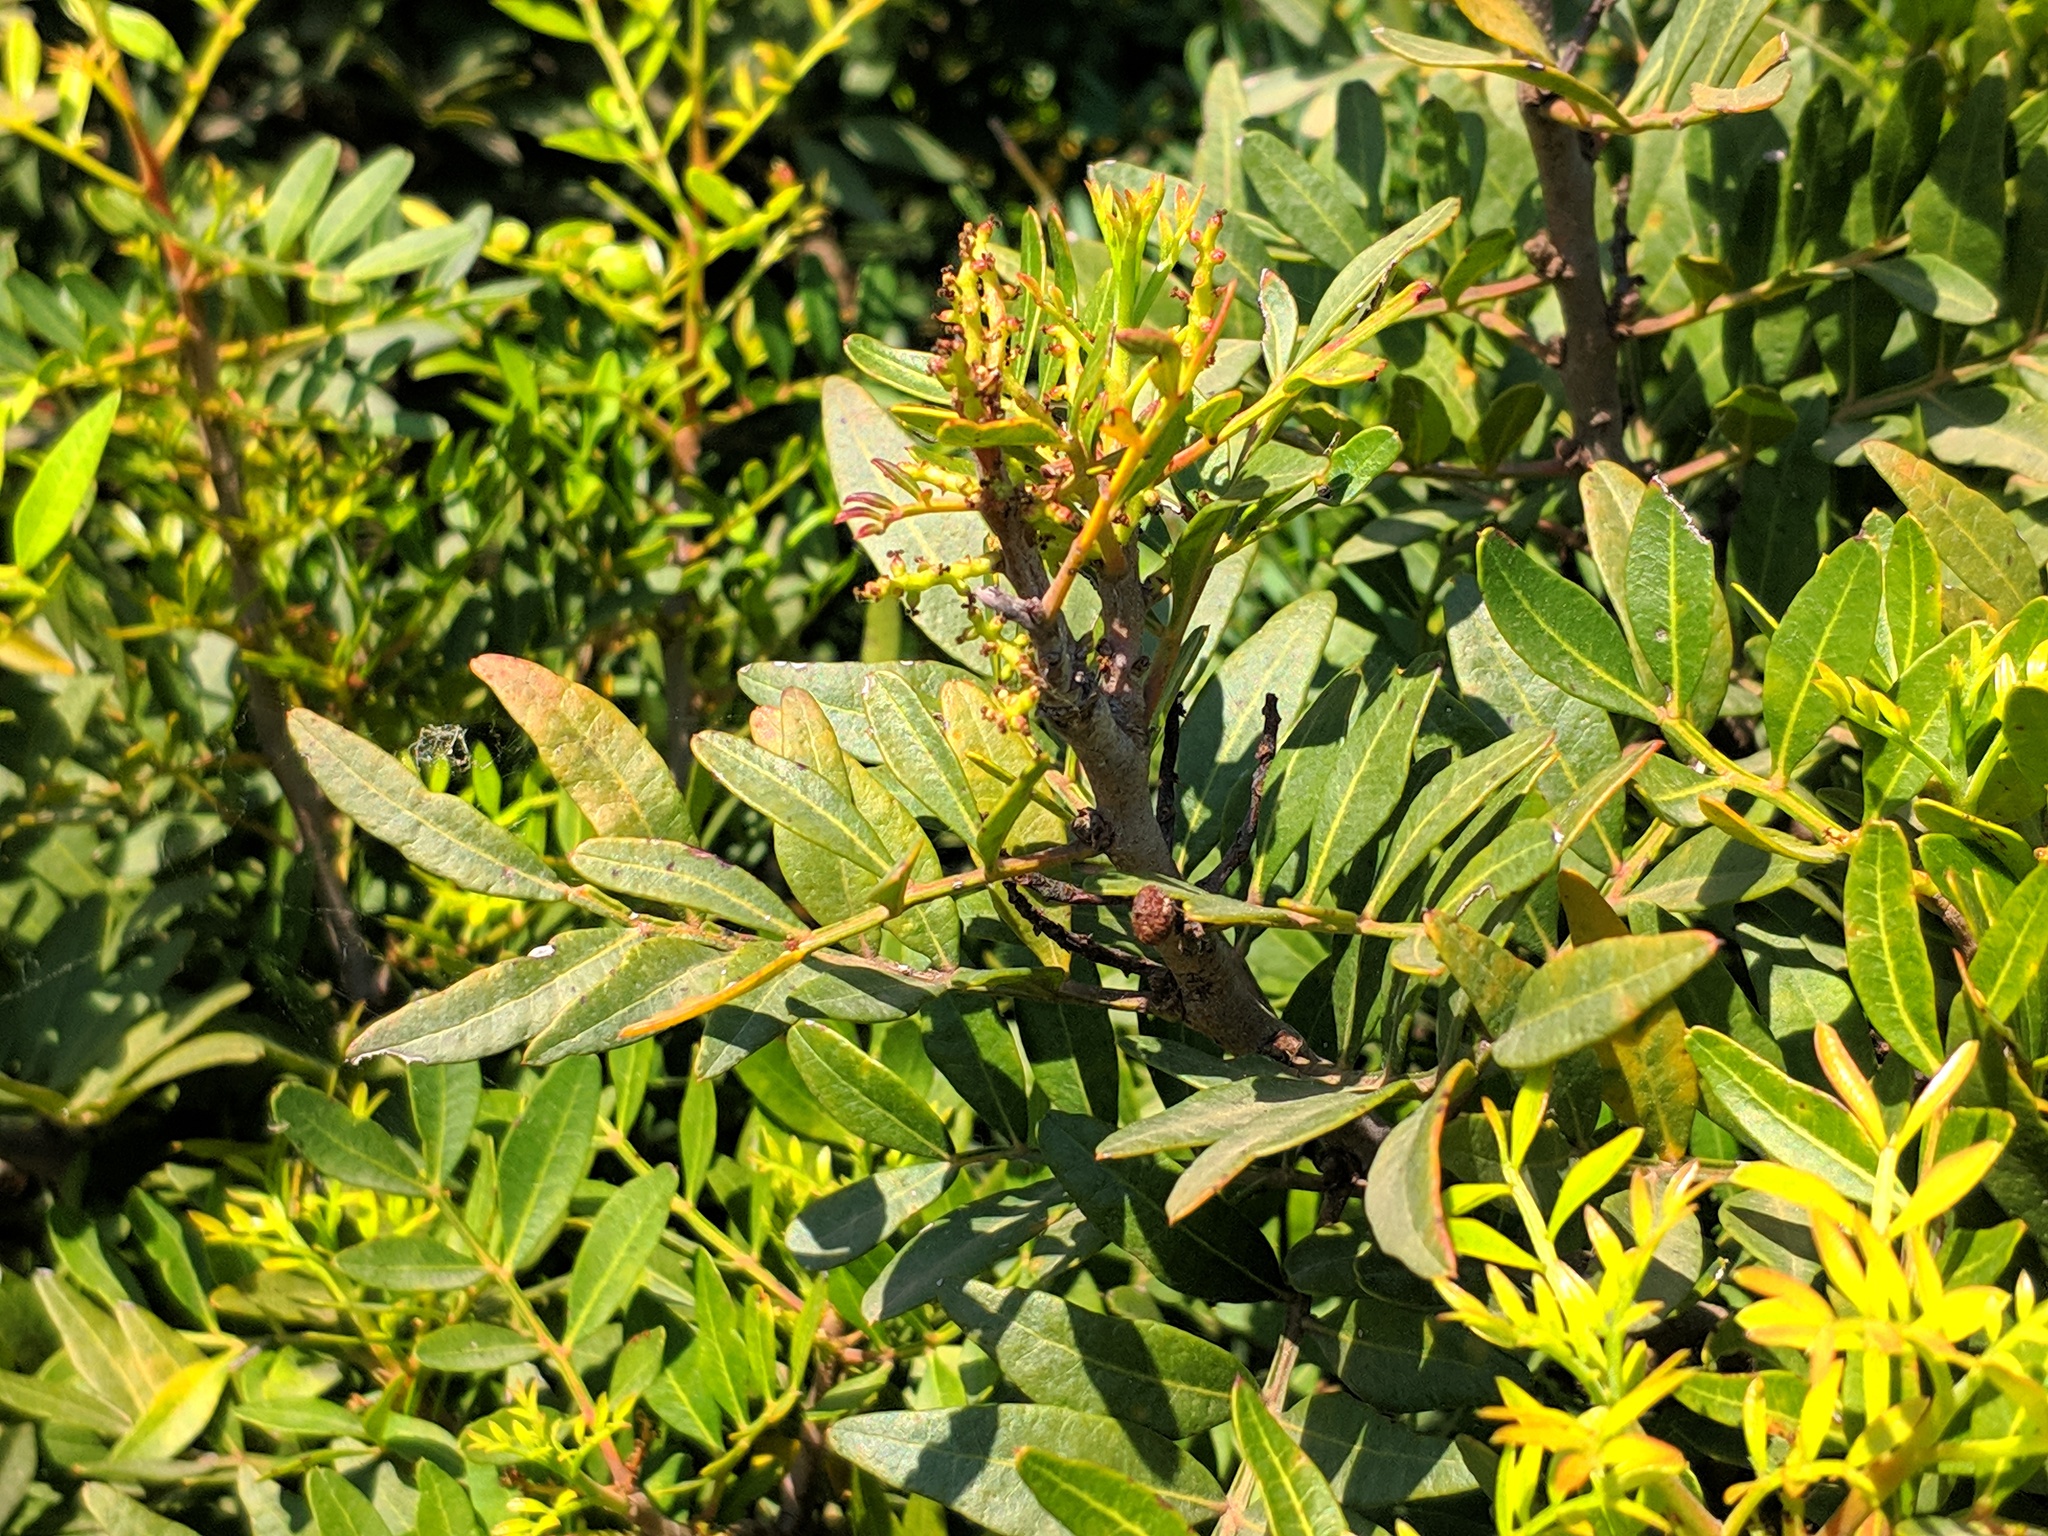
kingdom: Plantae
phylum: Tracheophyta
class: Magnoliopsida
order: Sapindales
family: Anacardiaceae
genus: Pistacia
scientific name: Pistacia lentiscus
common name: Lentisk
